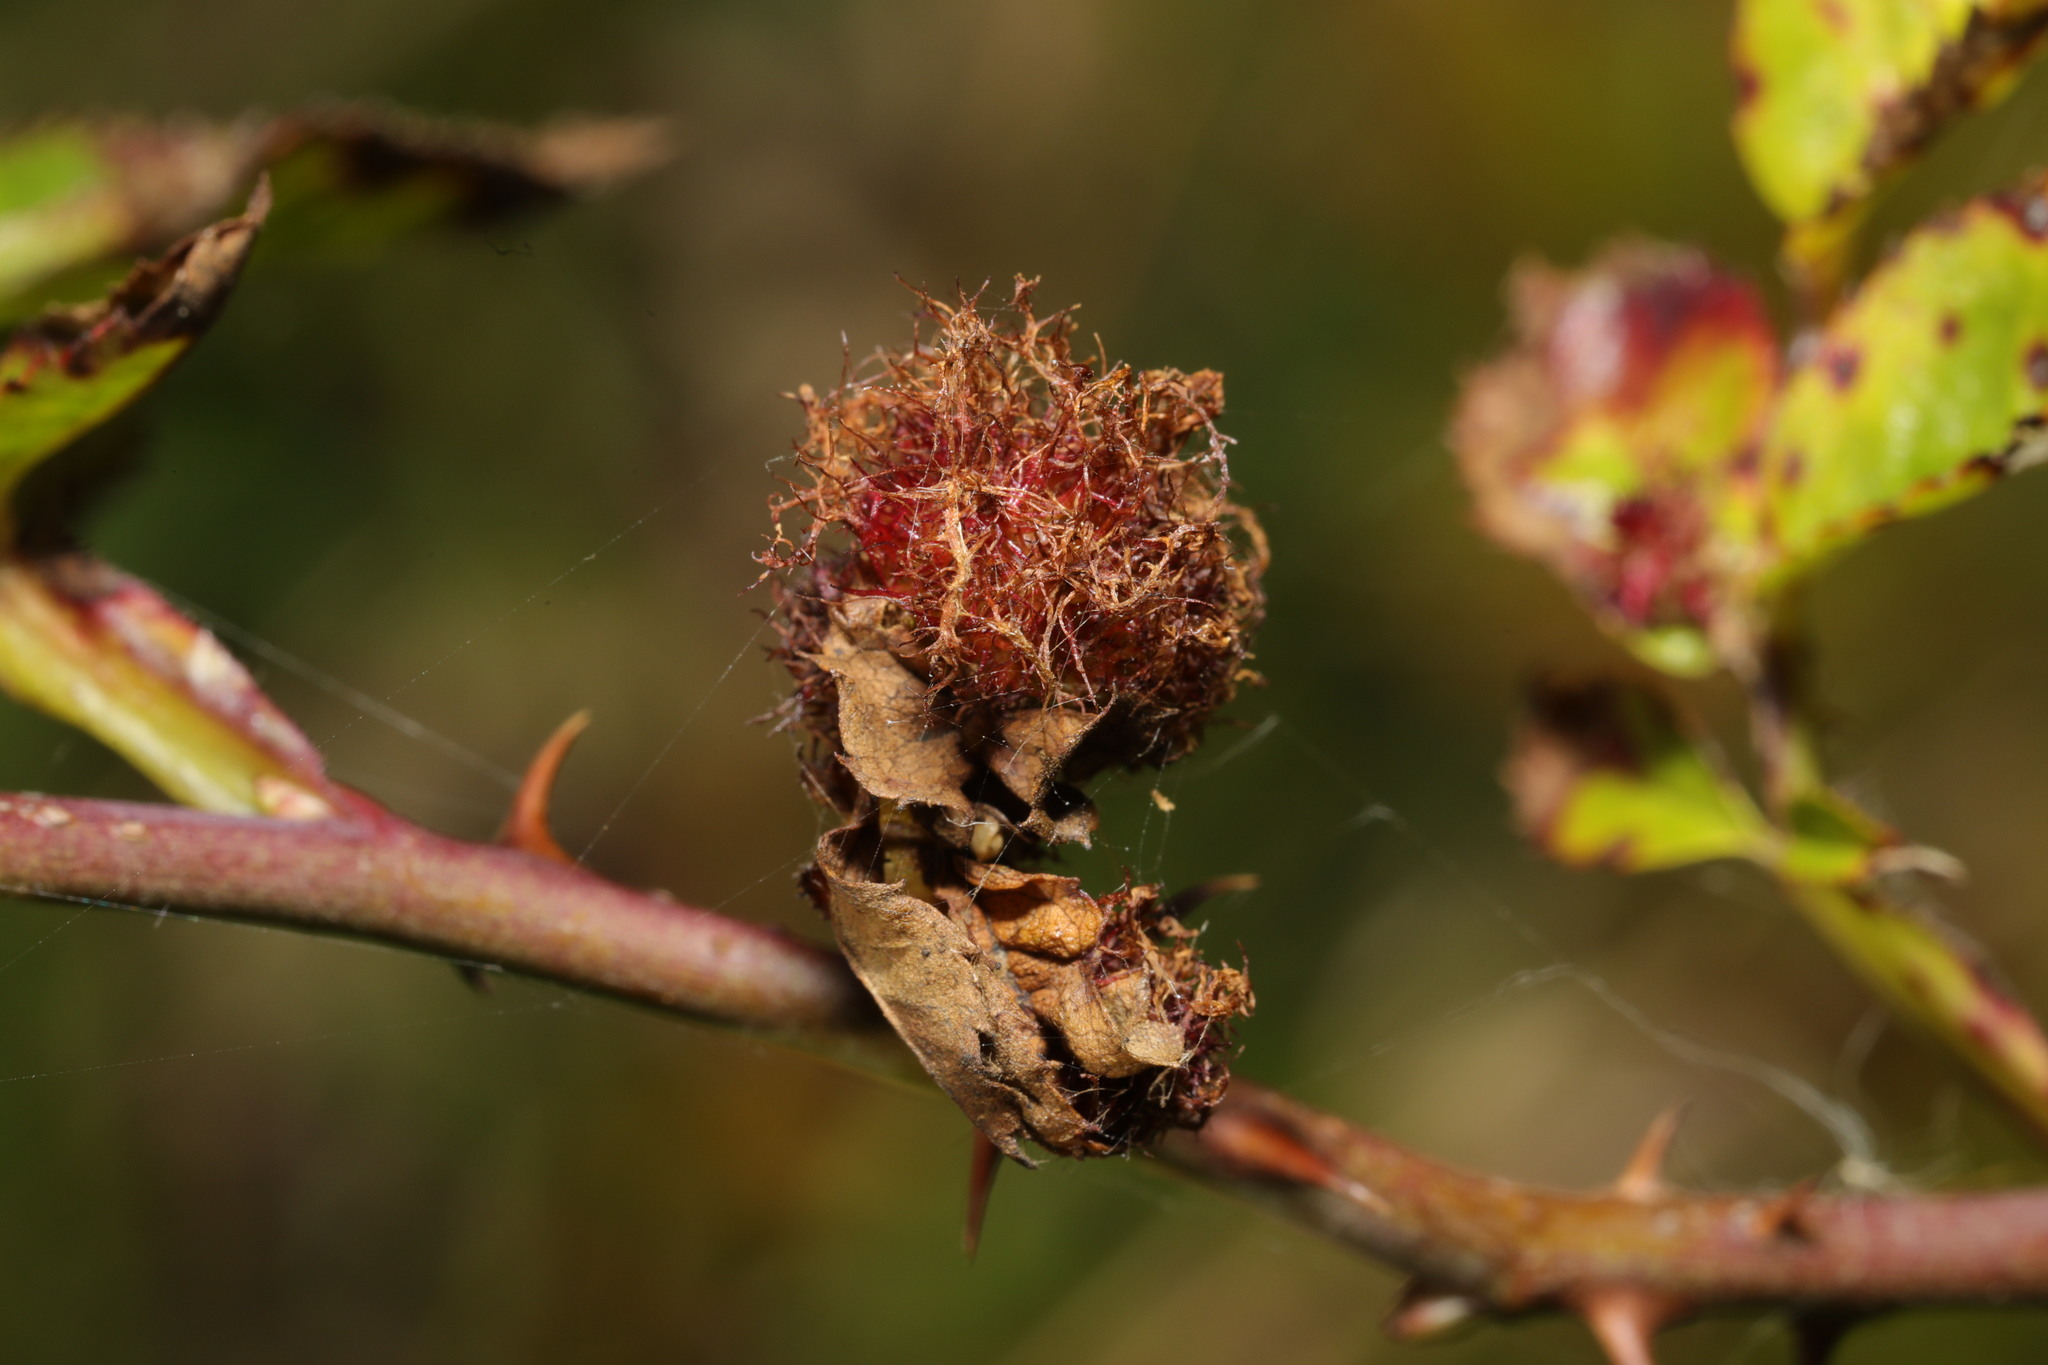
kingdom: Animalia
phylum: Arthropoda
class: Insecta
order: Hymenoptera
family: Cynipidae
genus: Diplolepis
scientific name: Diplolepis rosae
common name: Bedeguar gall
